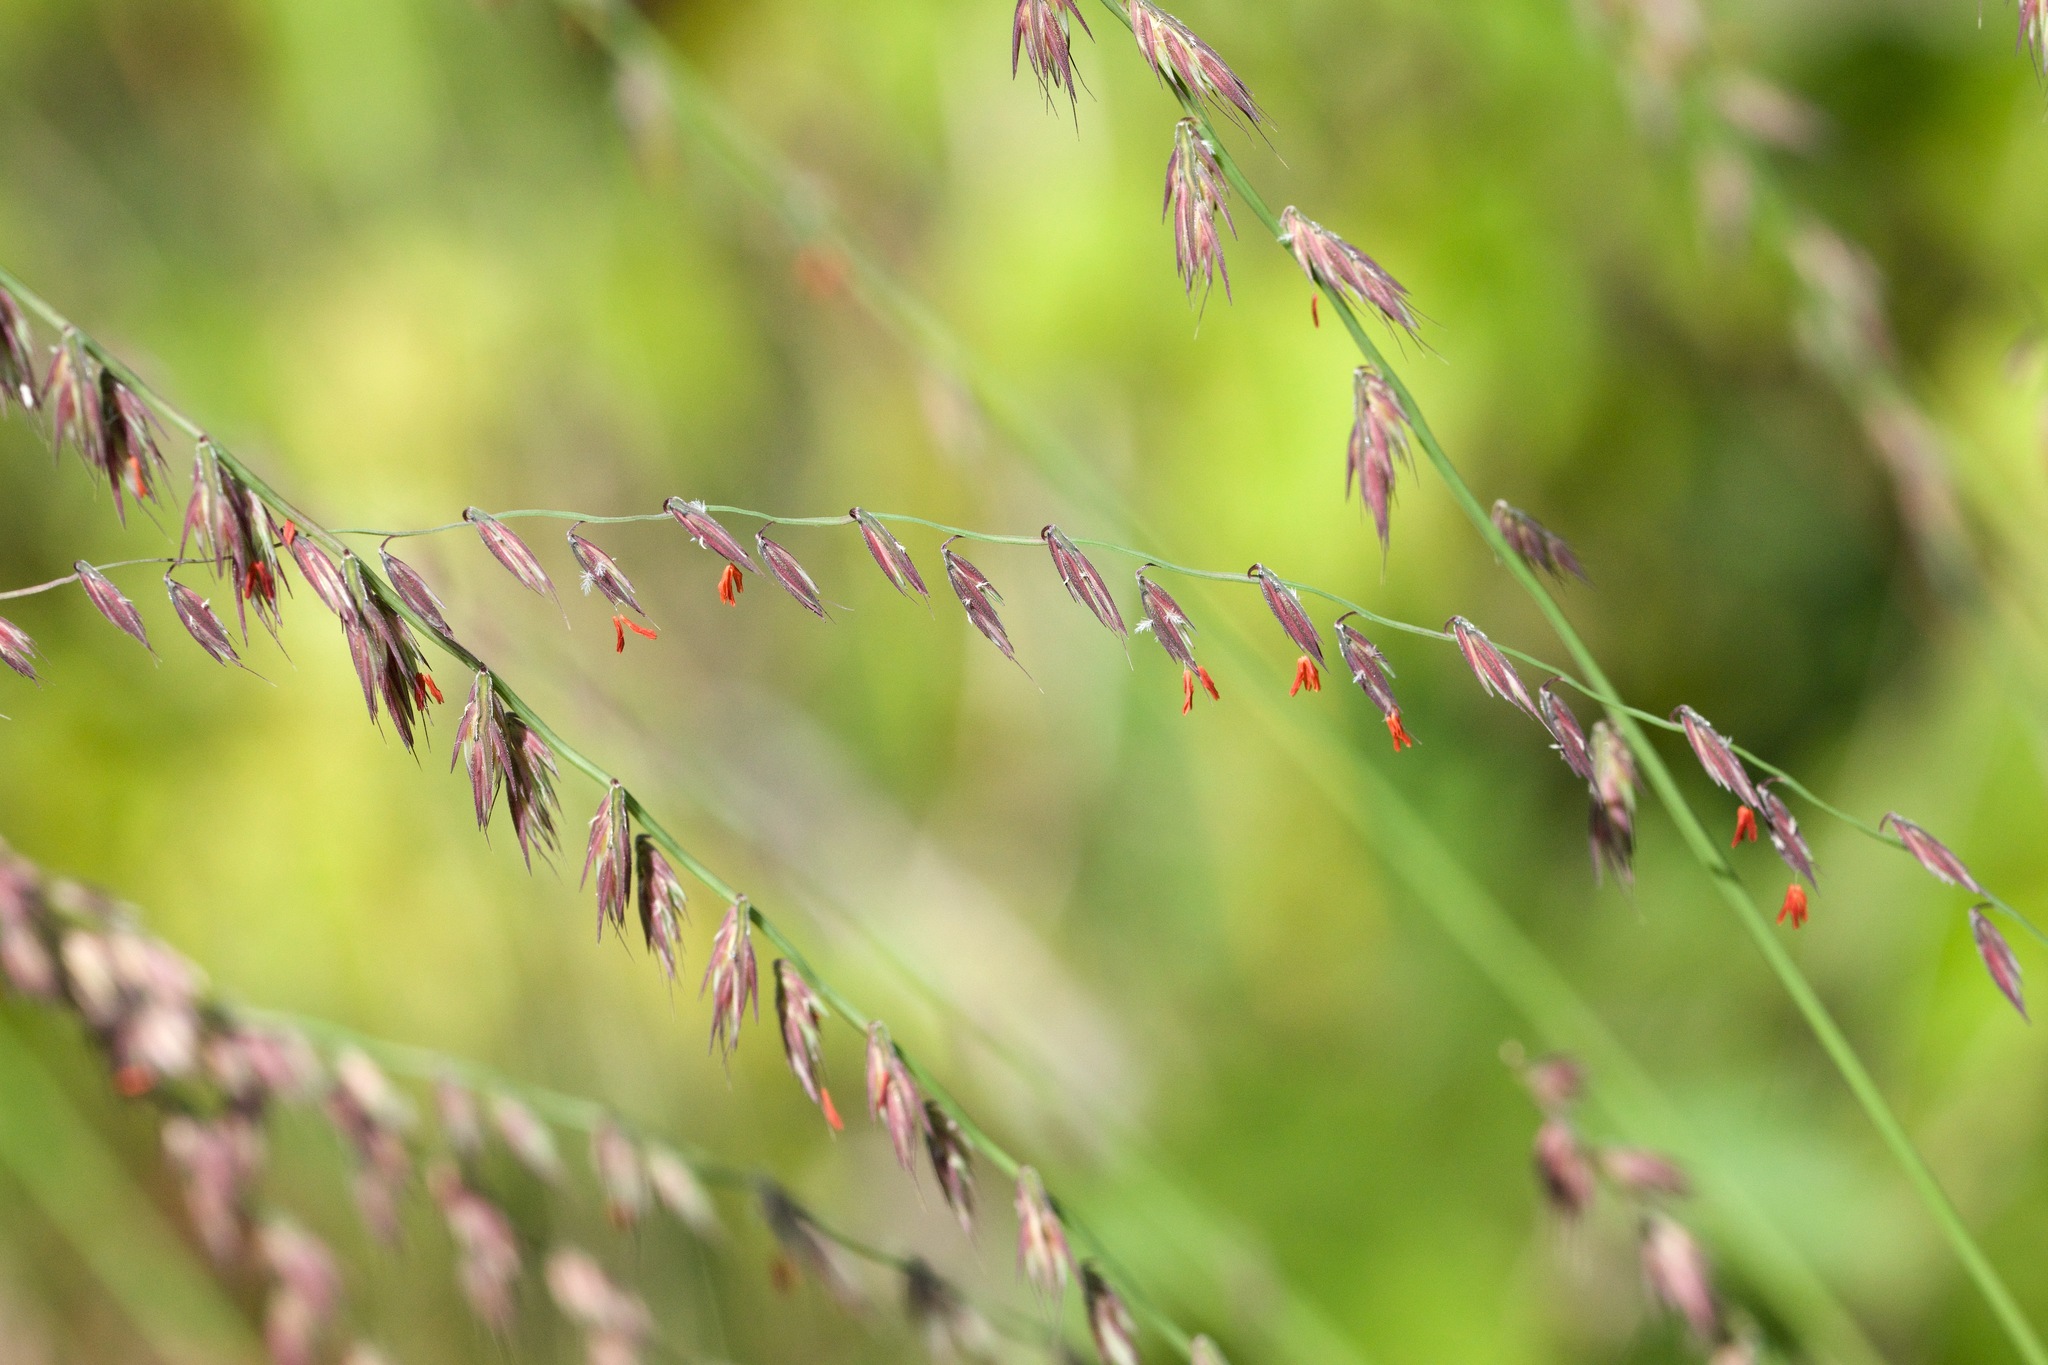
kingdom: Plantae
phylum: Tracheophyta
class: Liliopsida
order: Poales
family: Poaceae
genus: Bouteloua
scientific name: Bouteloua curtipendula
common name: Side-oats grama
